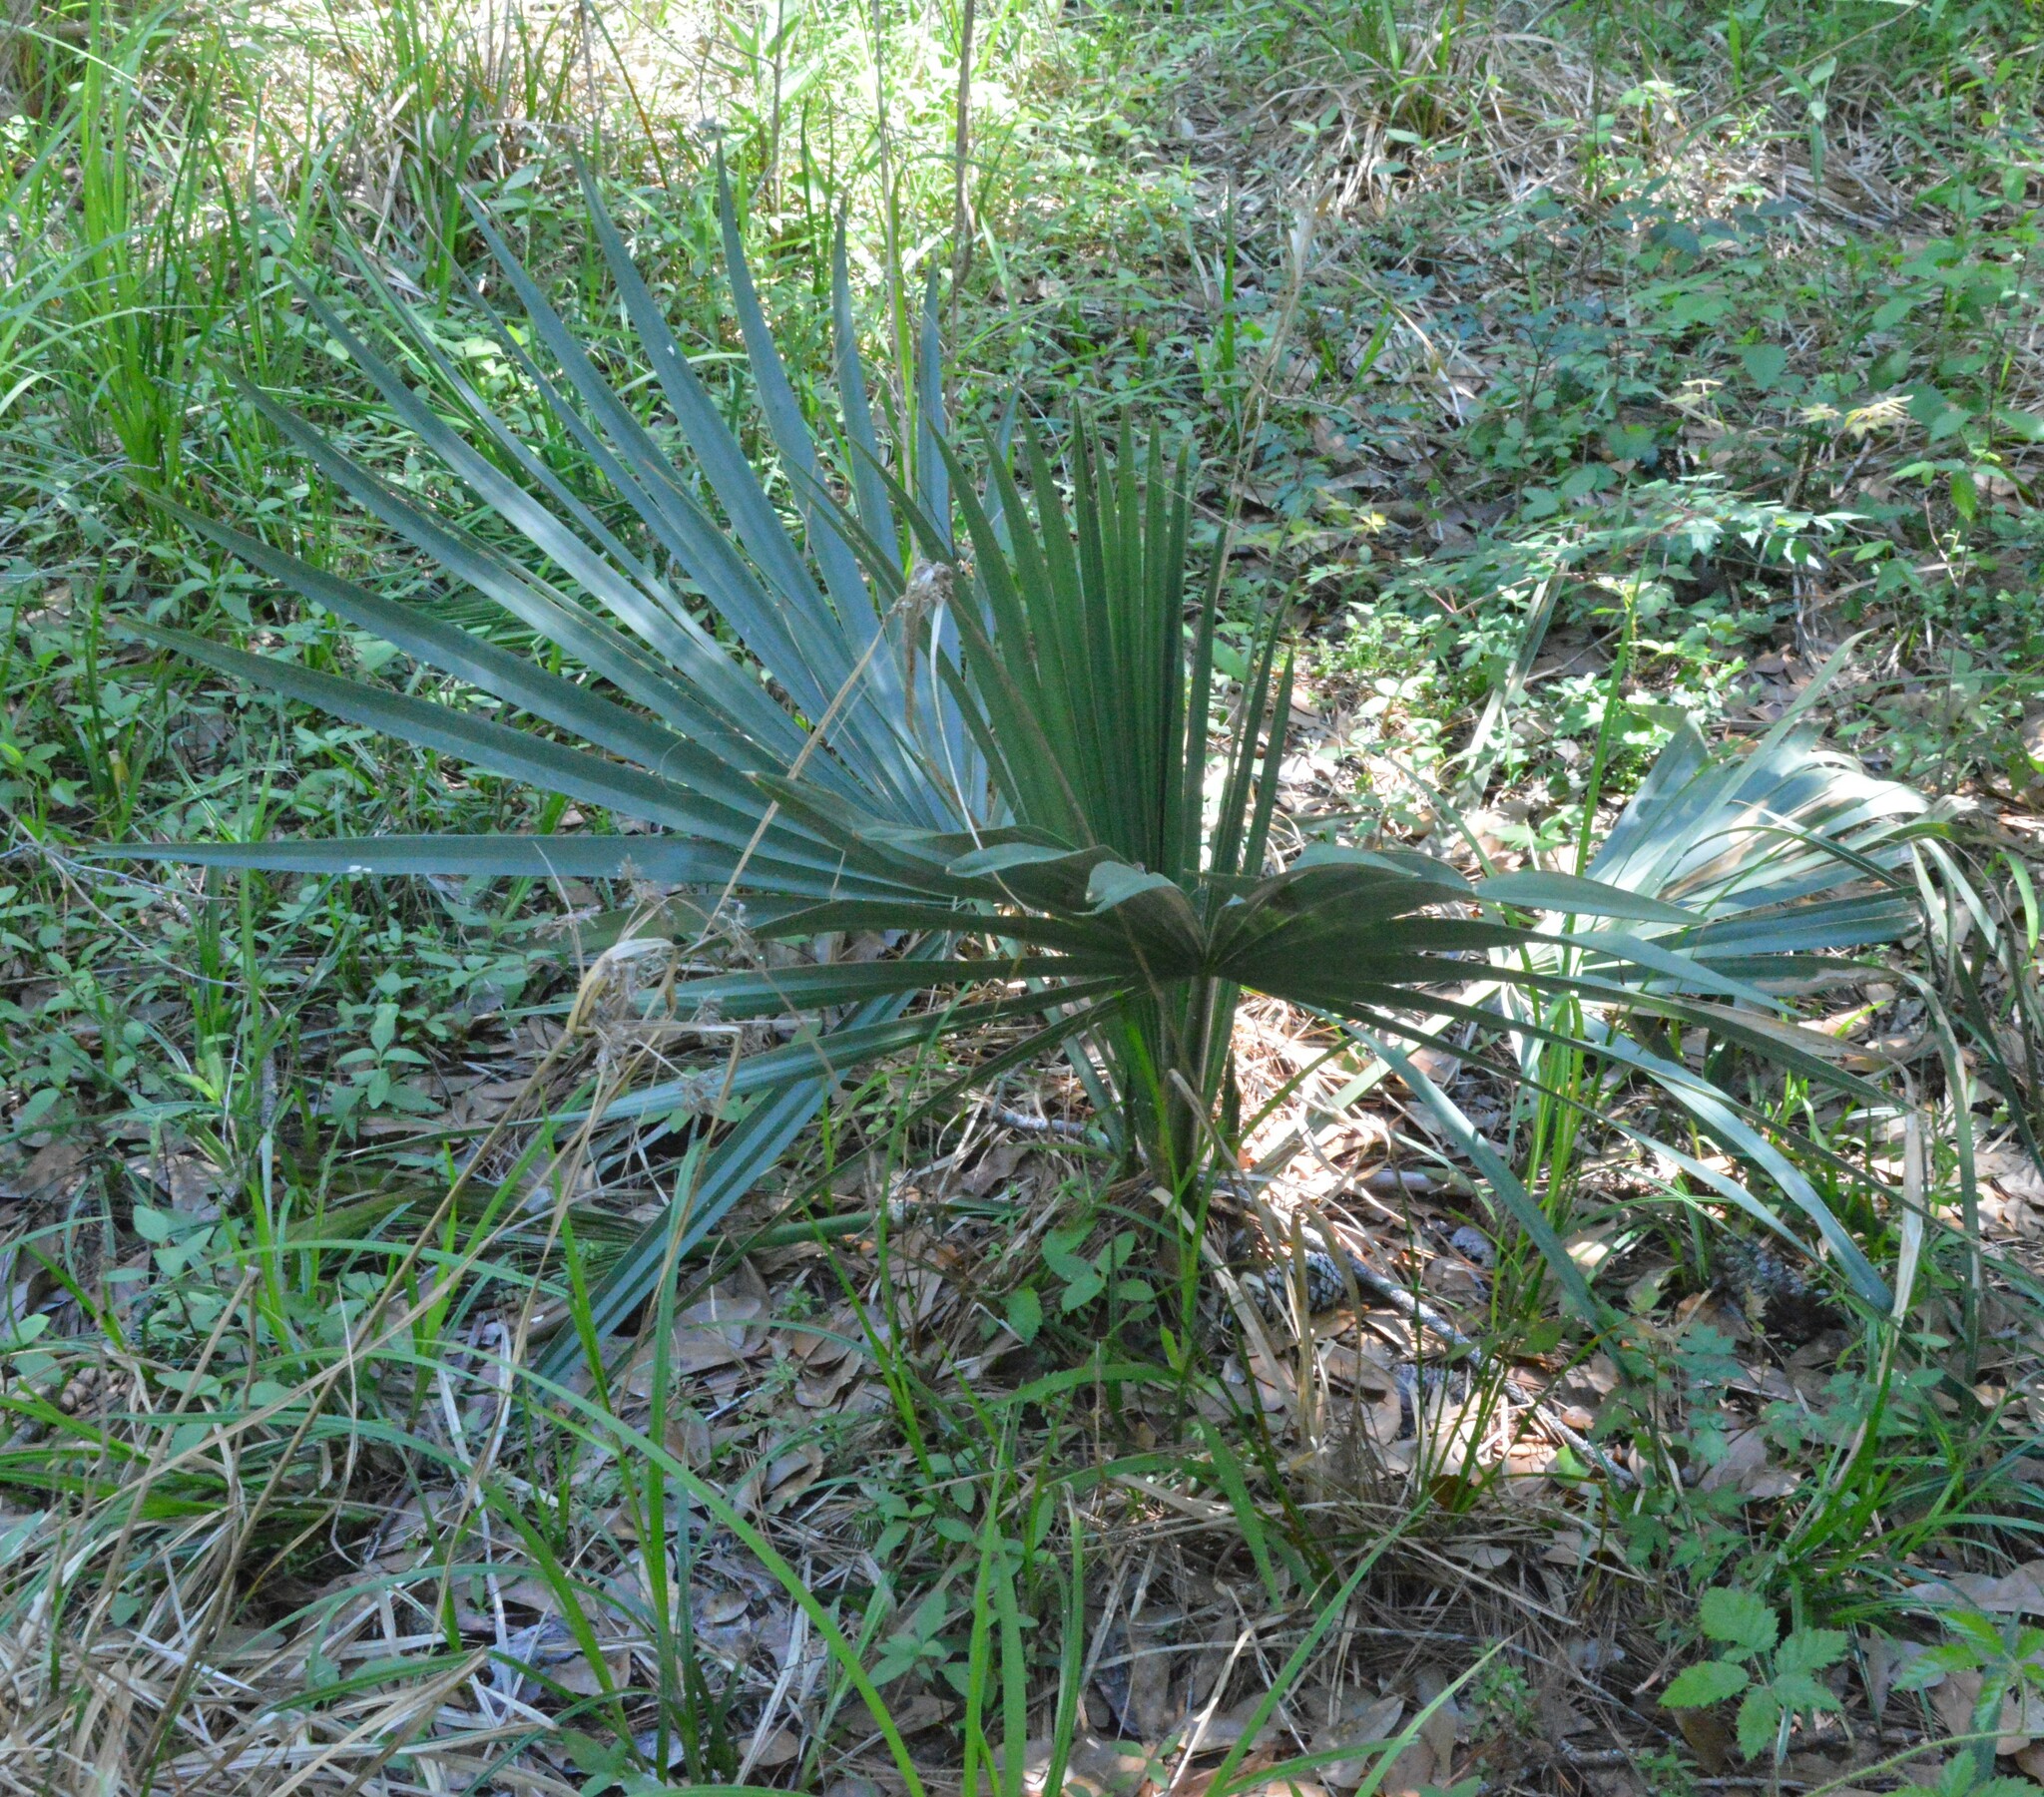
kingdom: Plantae
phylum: Tracheophyta
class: Liliopsida
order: Arecales
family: Arecaceae
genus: Sabal
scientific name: Sabal minor
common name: Dwarf palmetto
